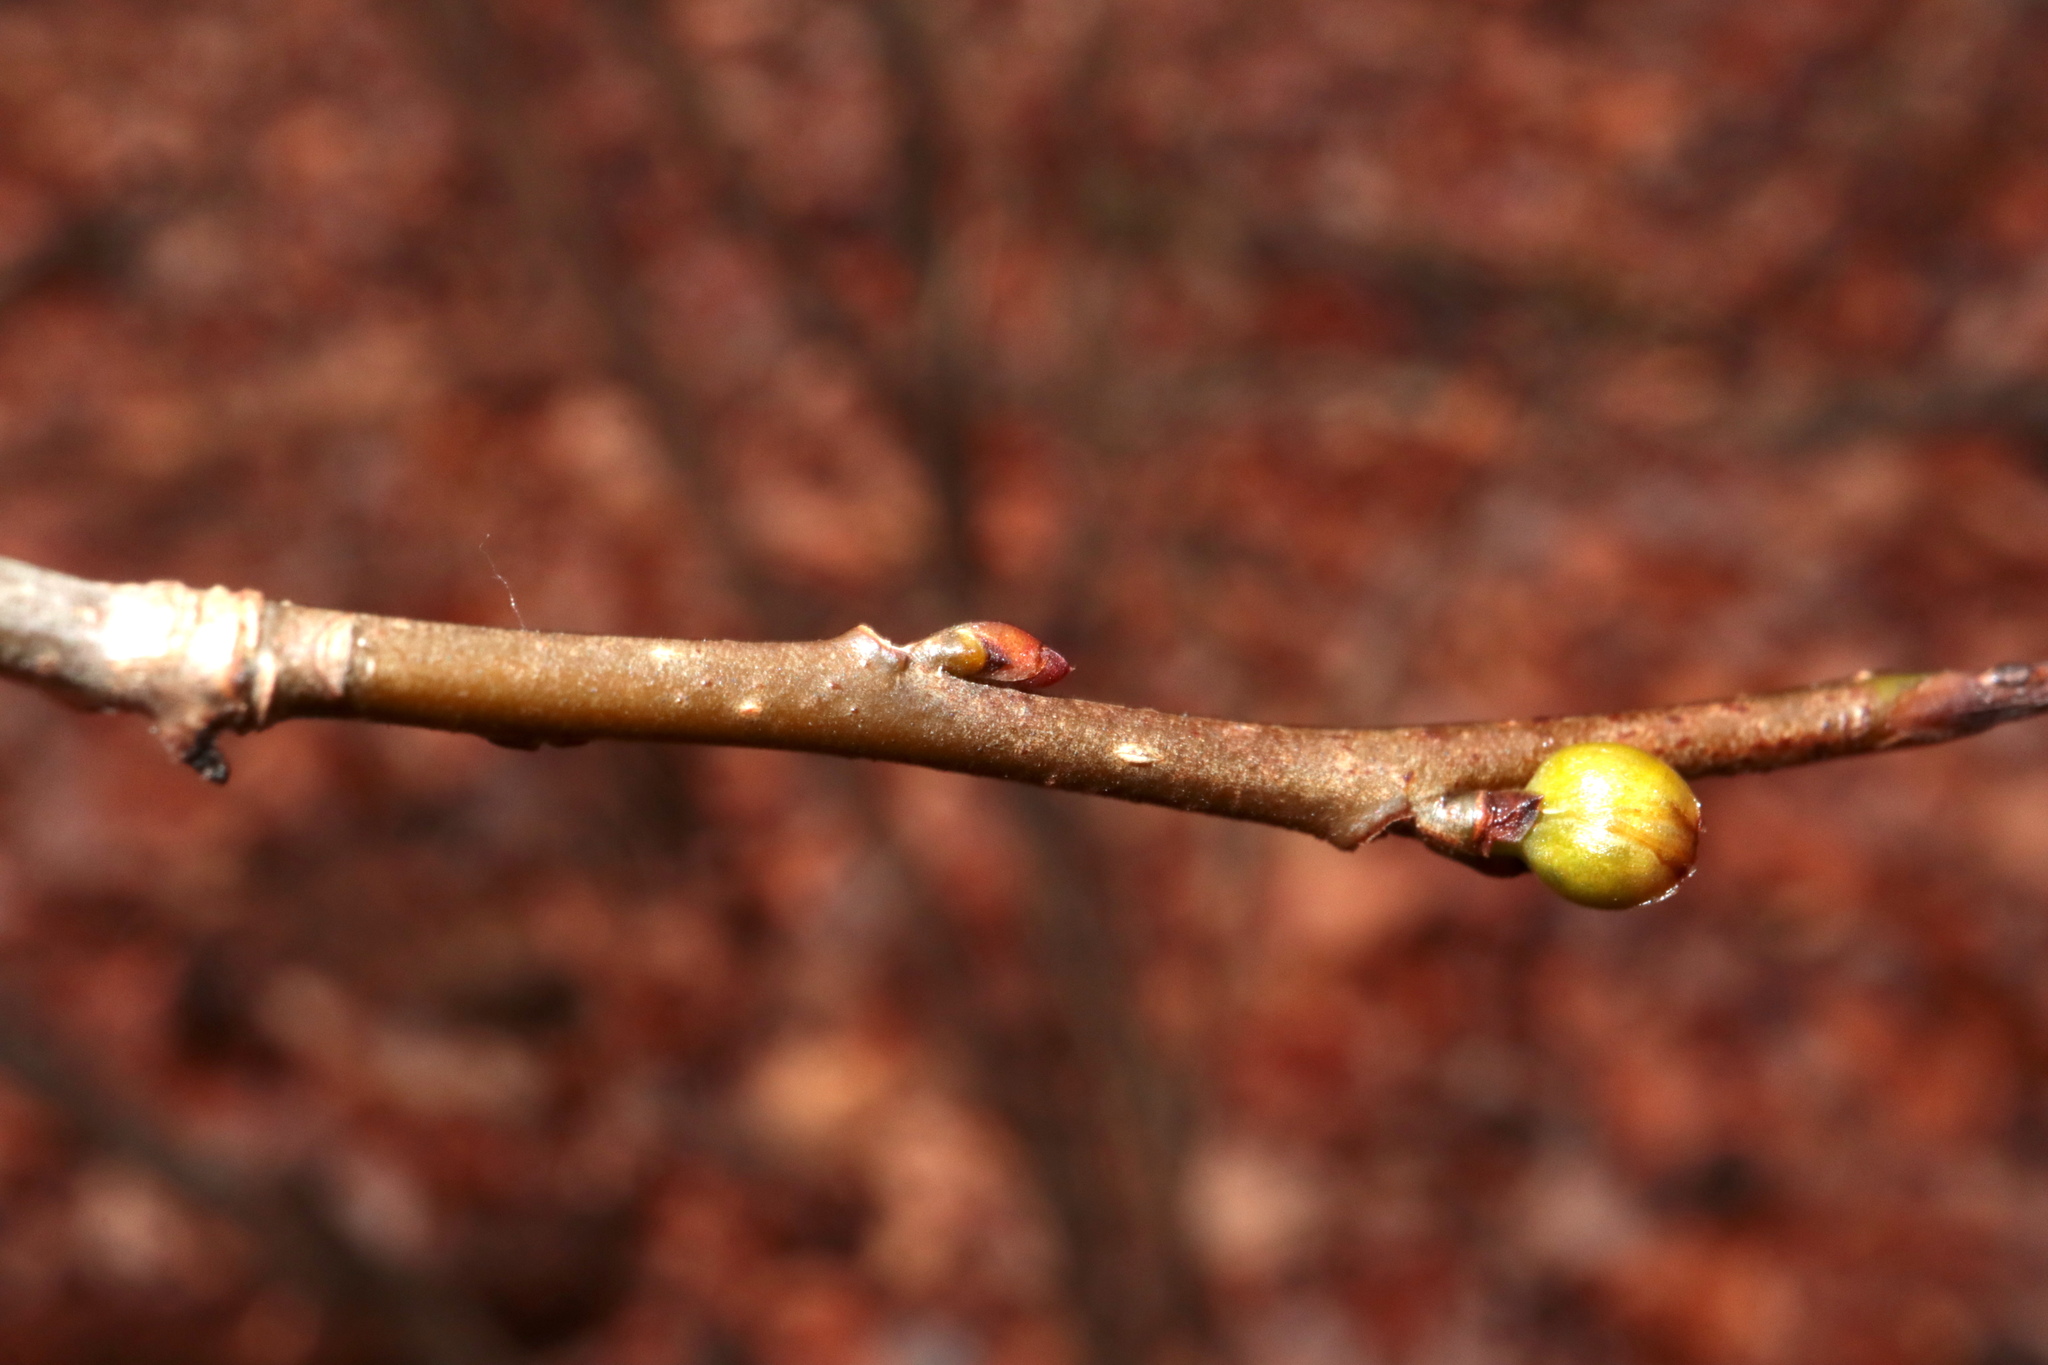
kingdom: Plantae
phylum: Tracheophyta
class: Magnoliopsida
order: Laurales
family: Lauraceae
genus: Lindera
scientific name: Lindera benzoin
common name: Spicebush
